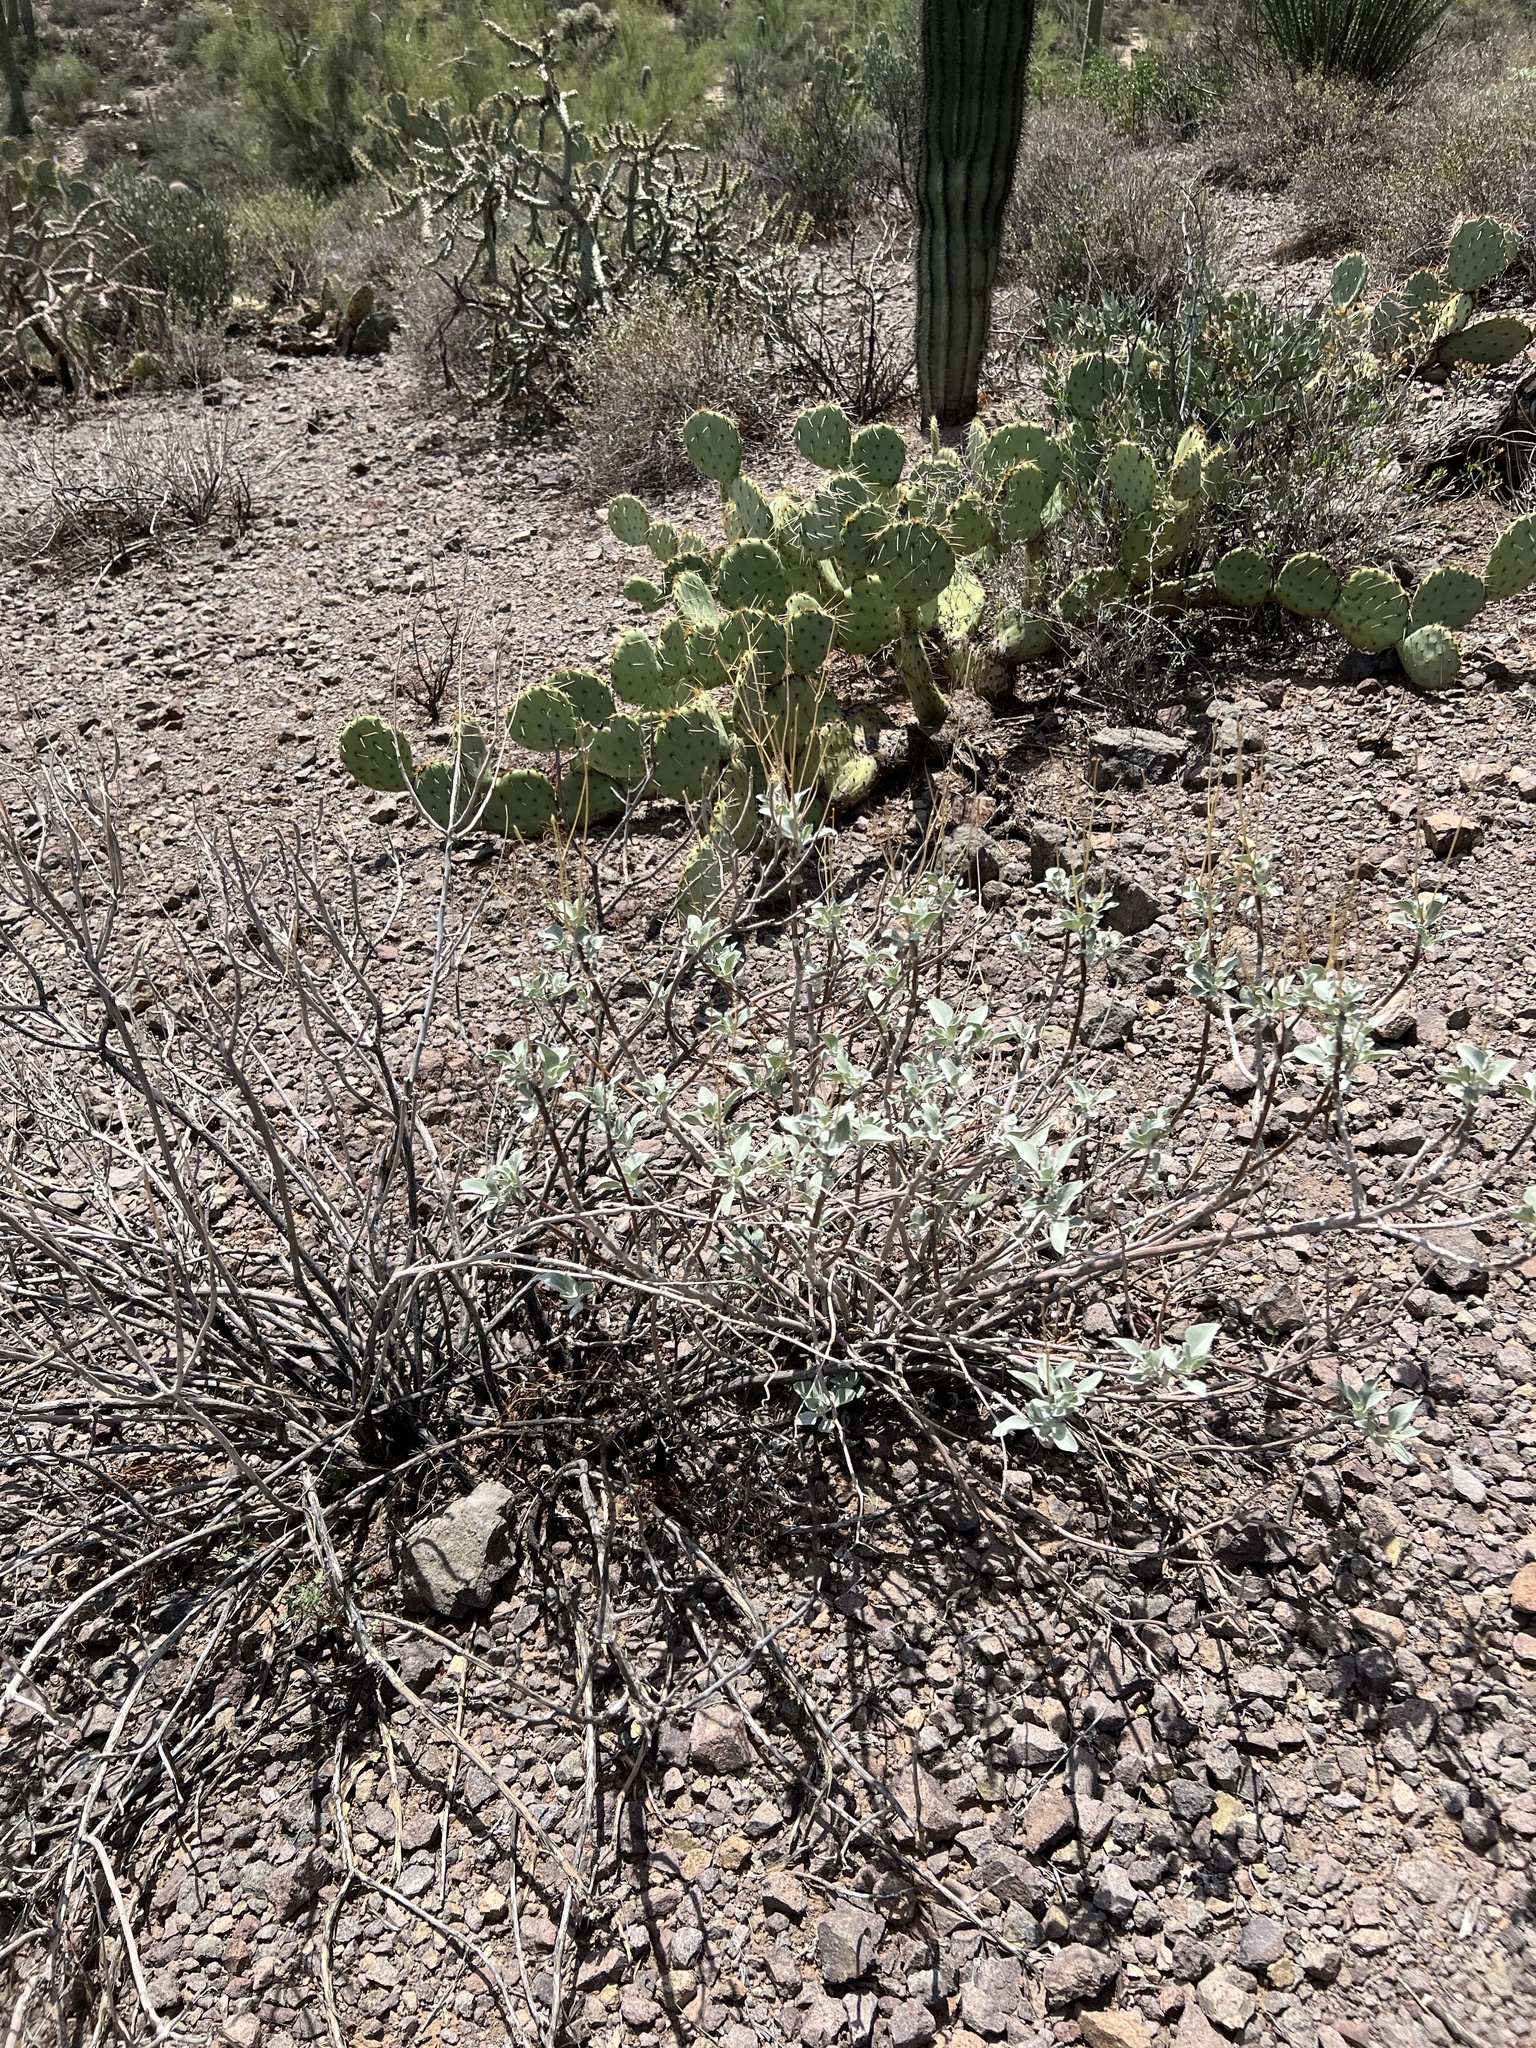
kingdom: Plantae
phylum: Tracheophyta
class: Magnoliopsida
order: Asterales
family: Asteraceae
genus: Encelia
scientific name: Encelia farinosa
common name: Brittlebush
